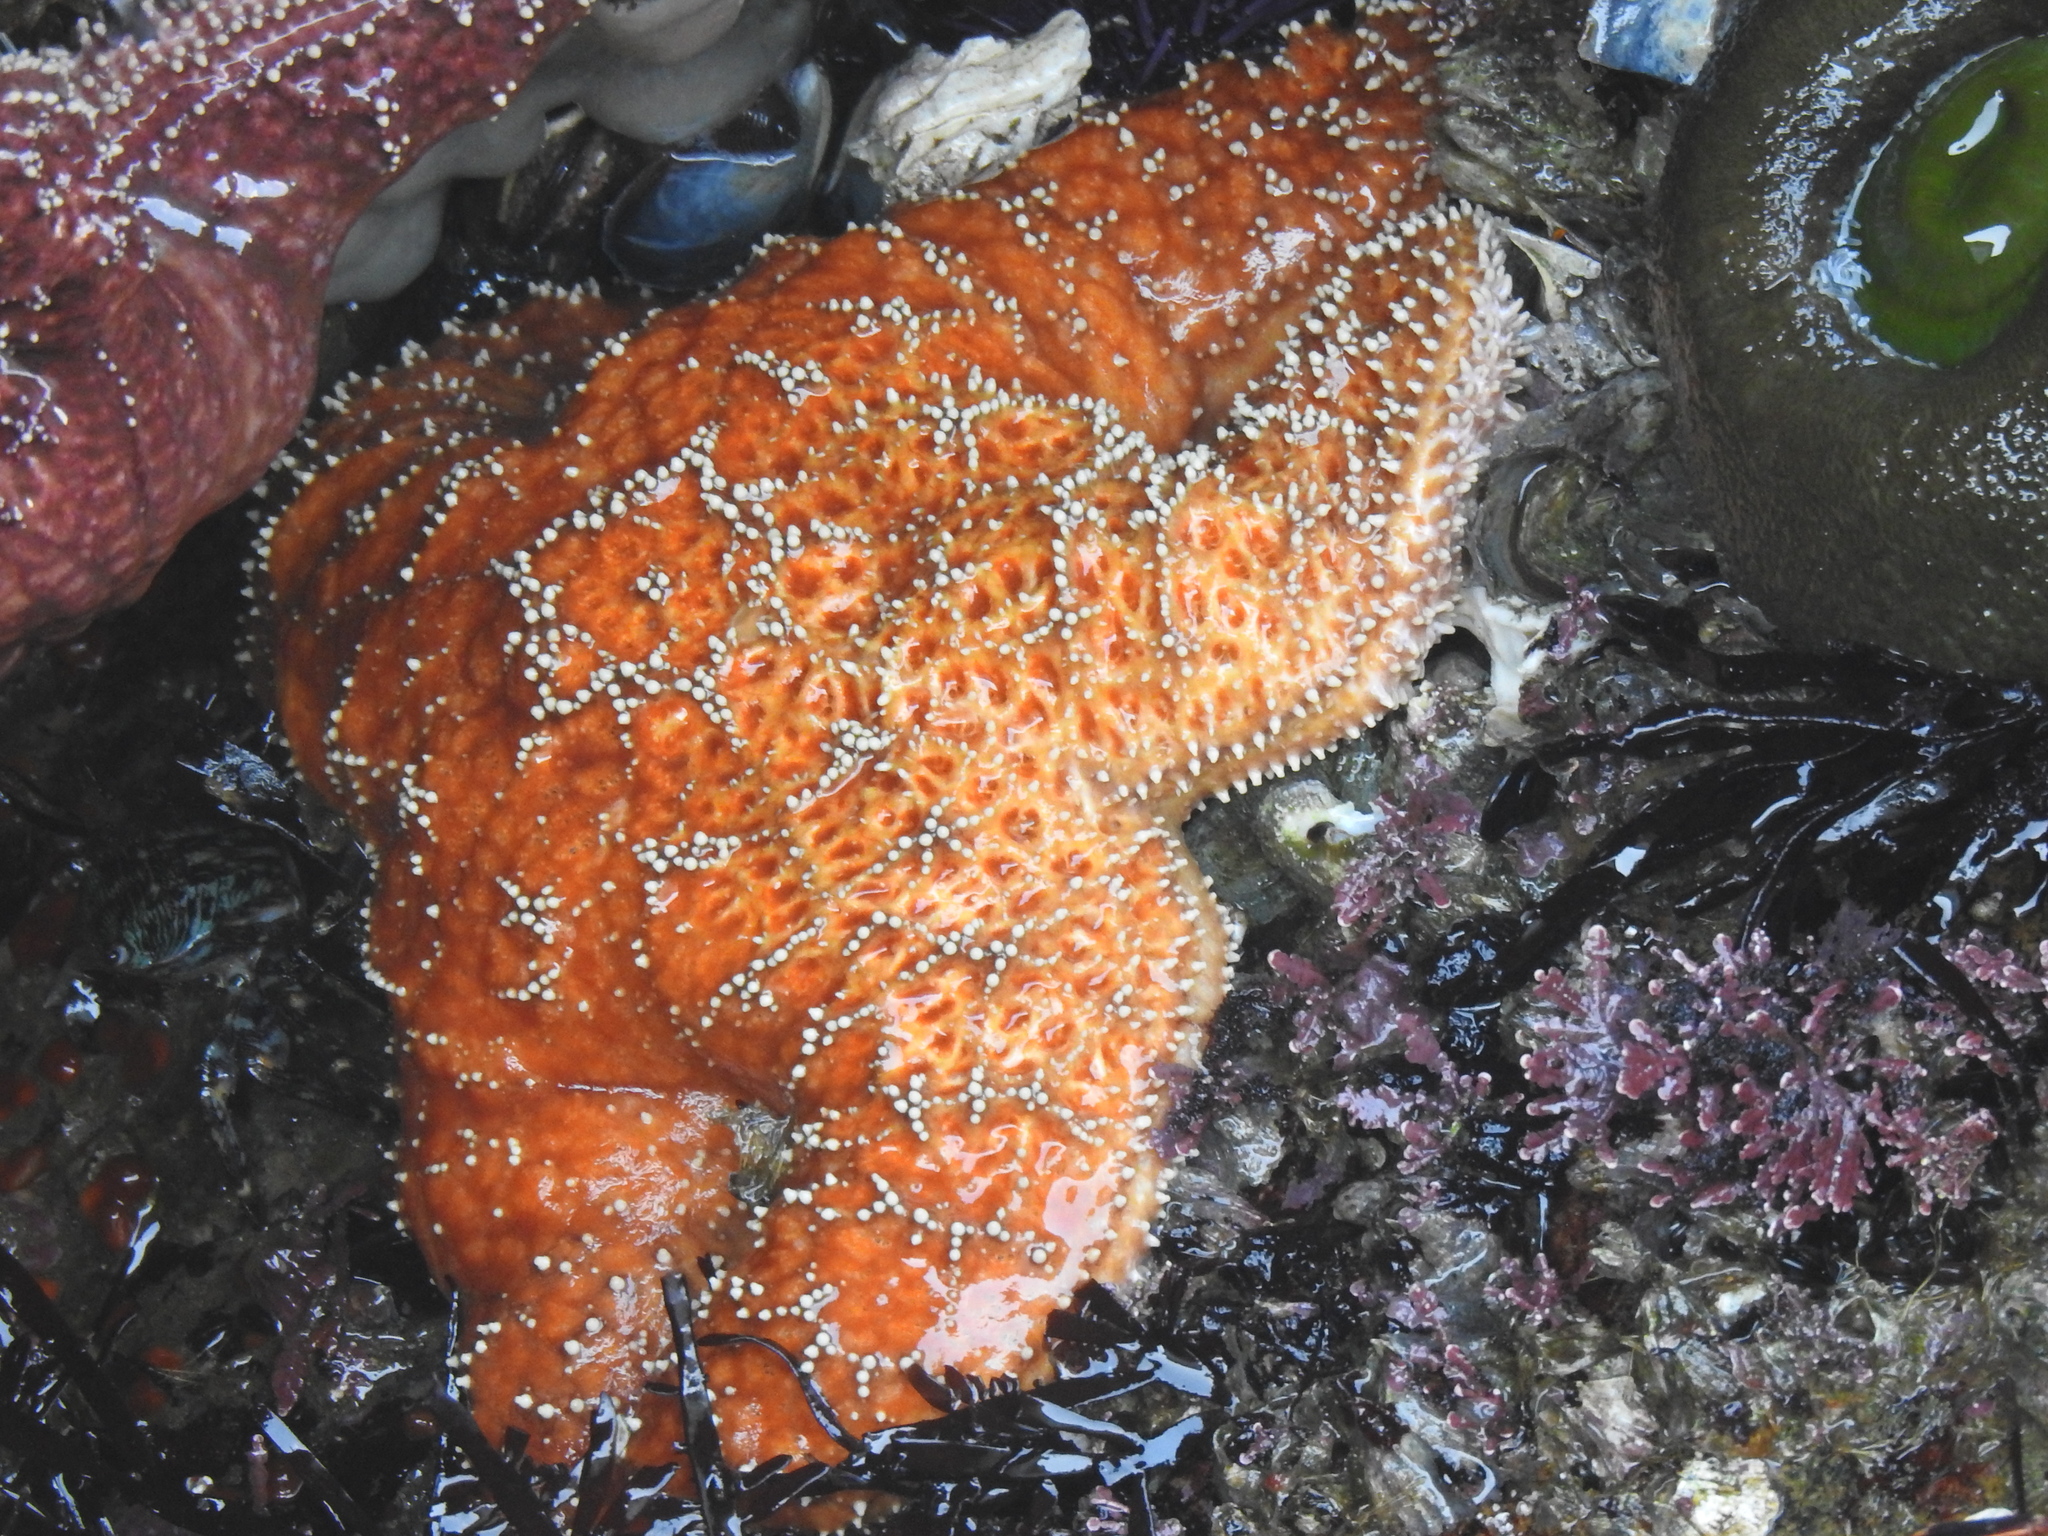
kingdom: Animalia
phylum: Echinodermata
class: Asteroidea
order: Forcipulatida
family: Asteriidae
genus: Pisaster
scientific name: Pisaster ochraceus
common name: Ochre stars
